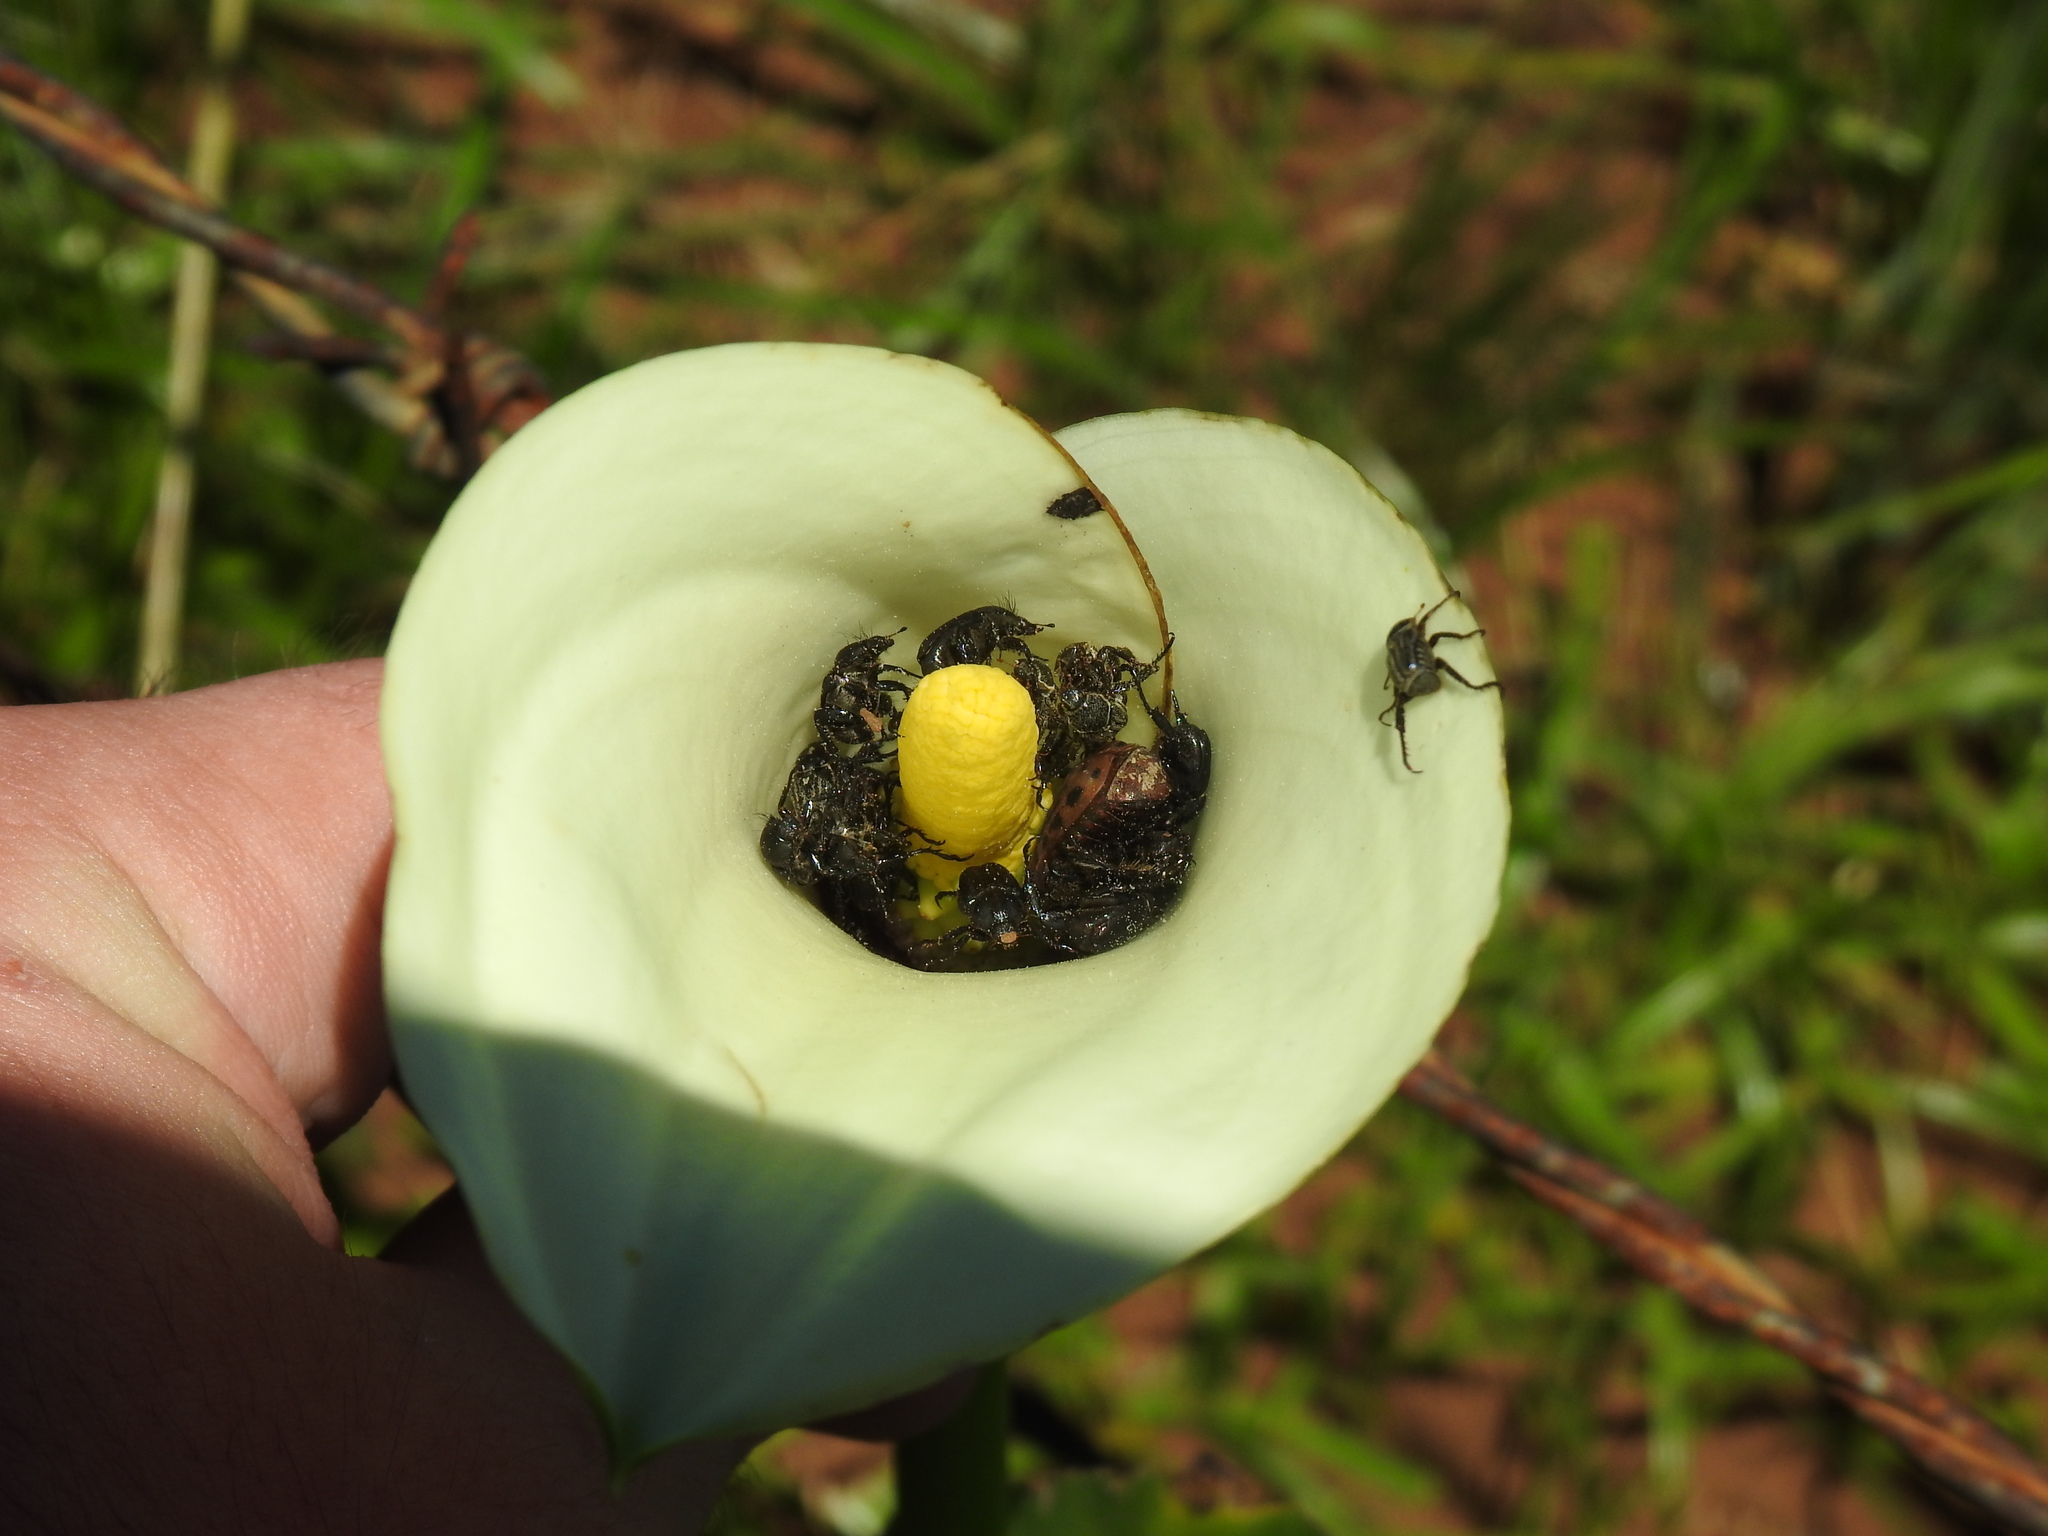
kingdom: Plantae
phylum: Tracheophyta
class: Liliopsida
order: Alismatales
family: Araceae
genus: Zantedeschia
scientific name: Zantedeschia aethiopica
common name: Altar-lily
